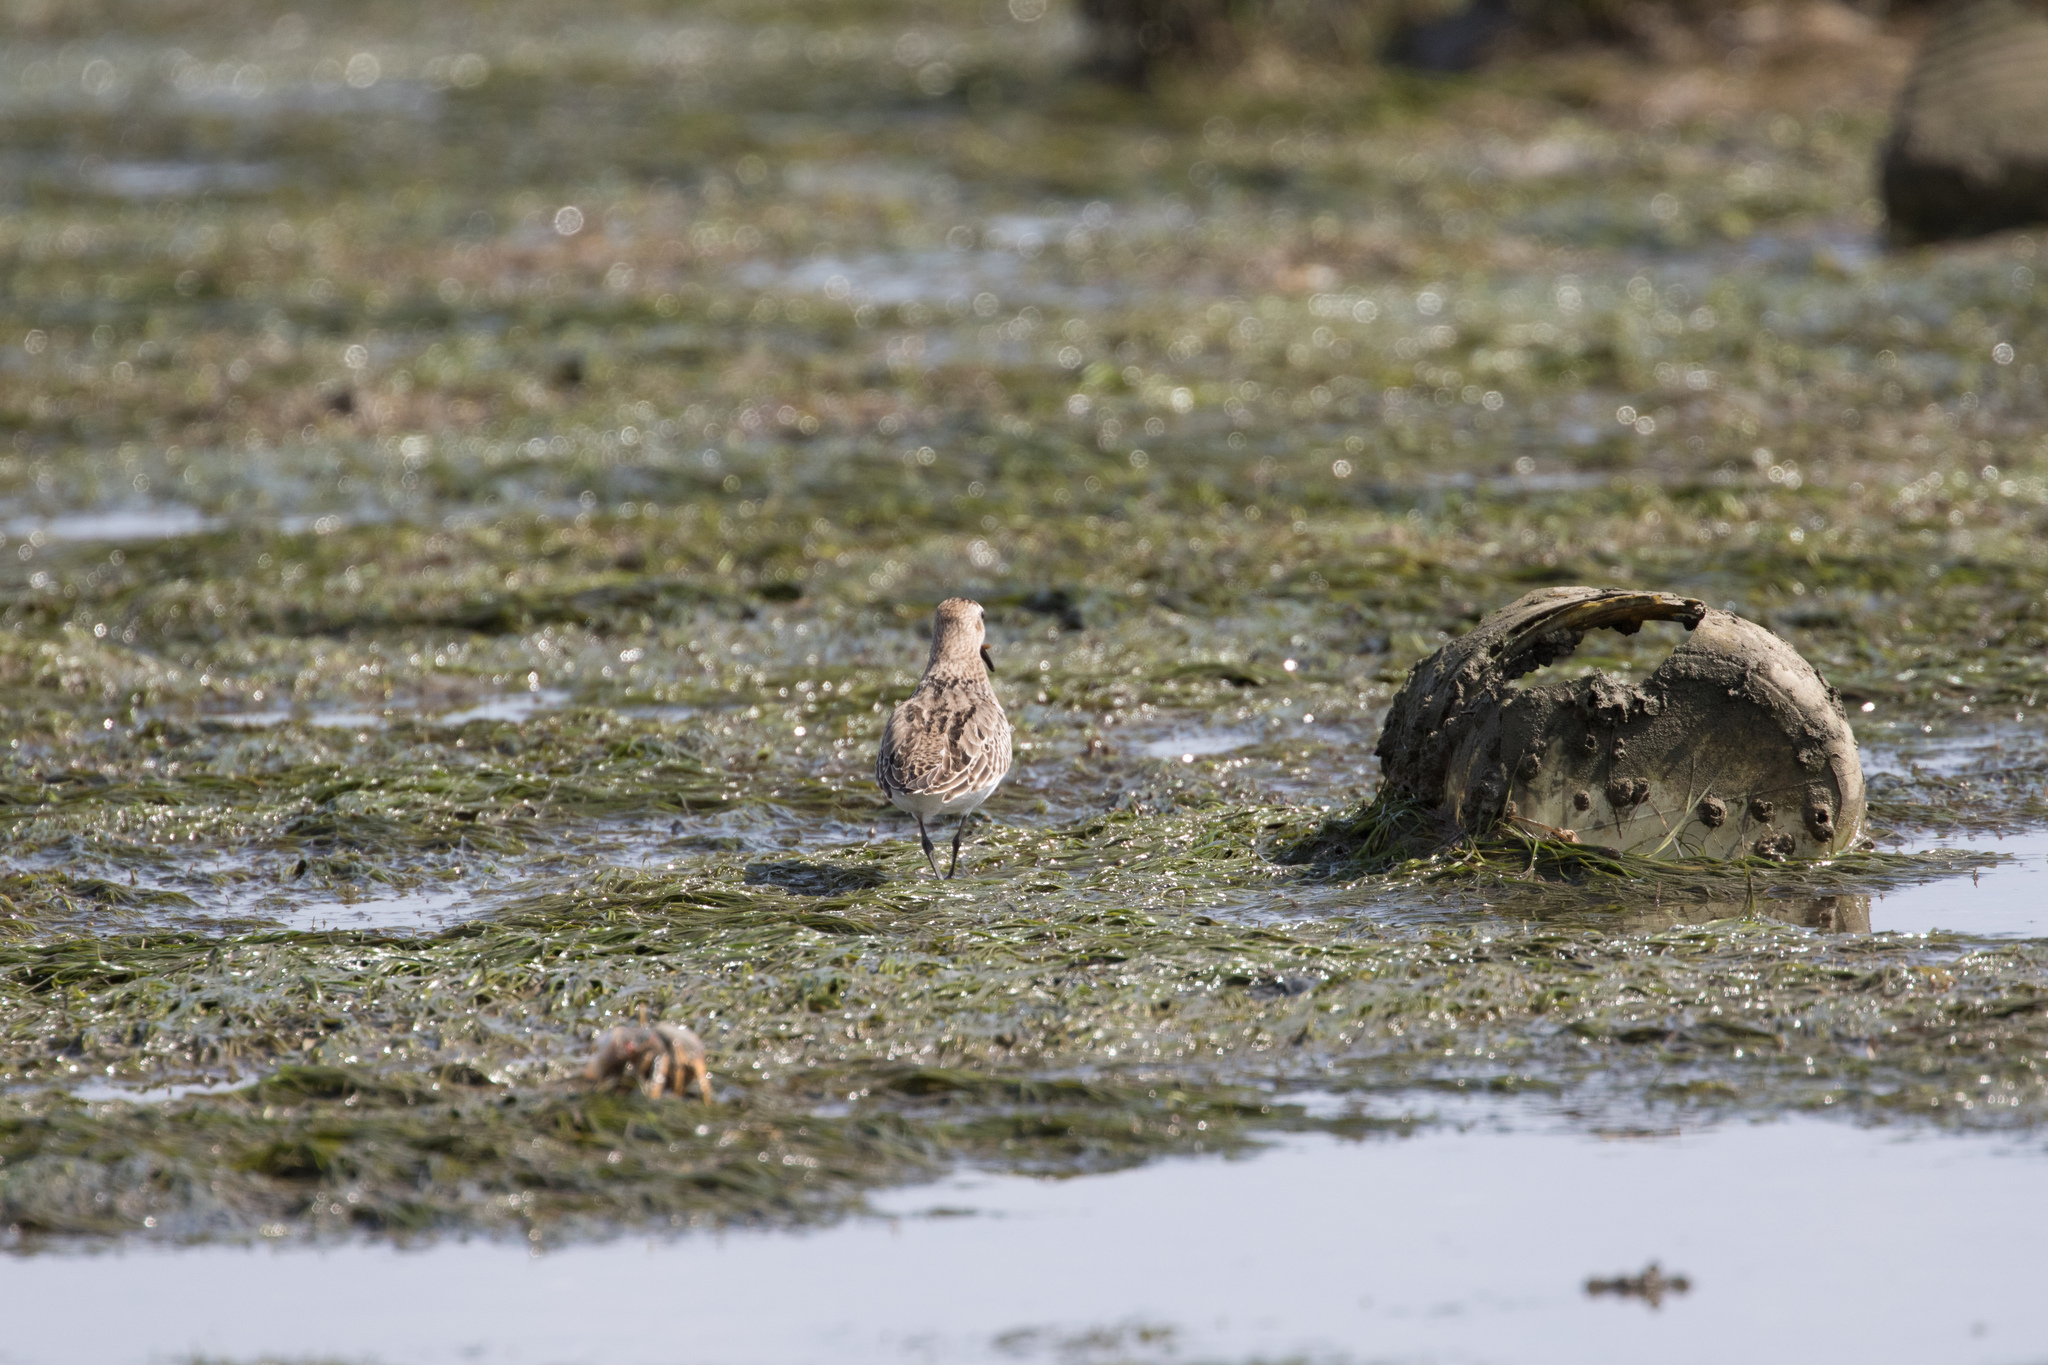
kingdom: Animalia
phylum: Chordata
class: Aves
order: Charadriiformes
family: Scolopacidae
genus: Calidris
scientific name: Calidris alpina
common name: Dunlin
